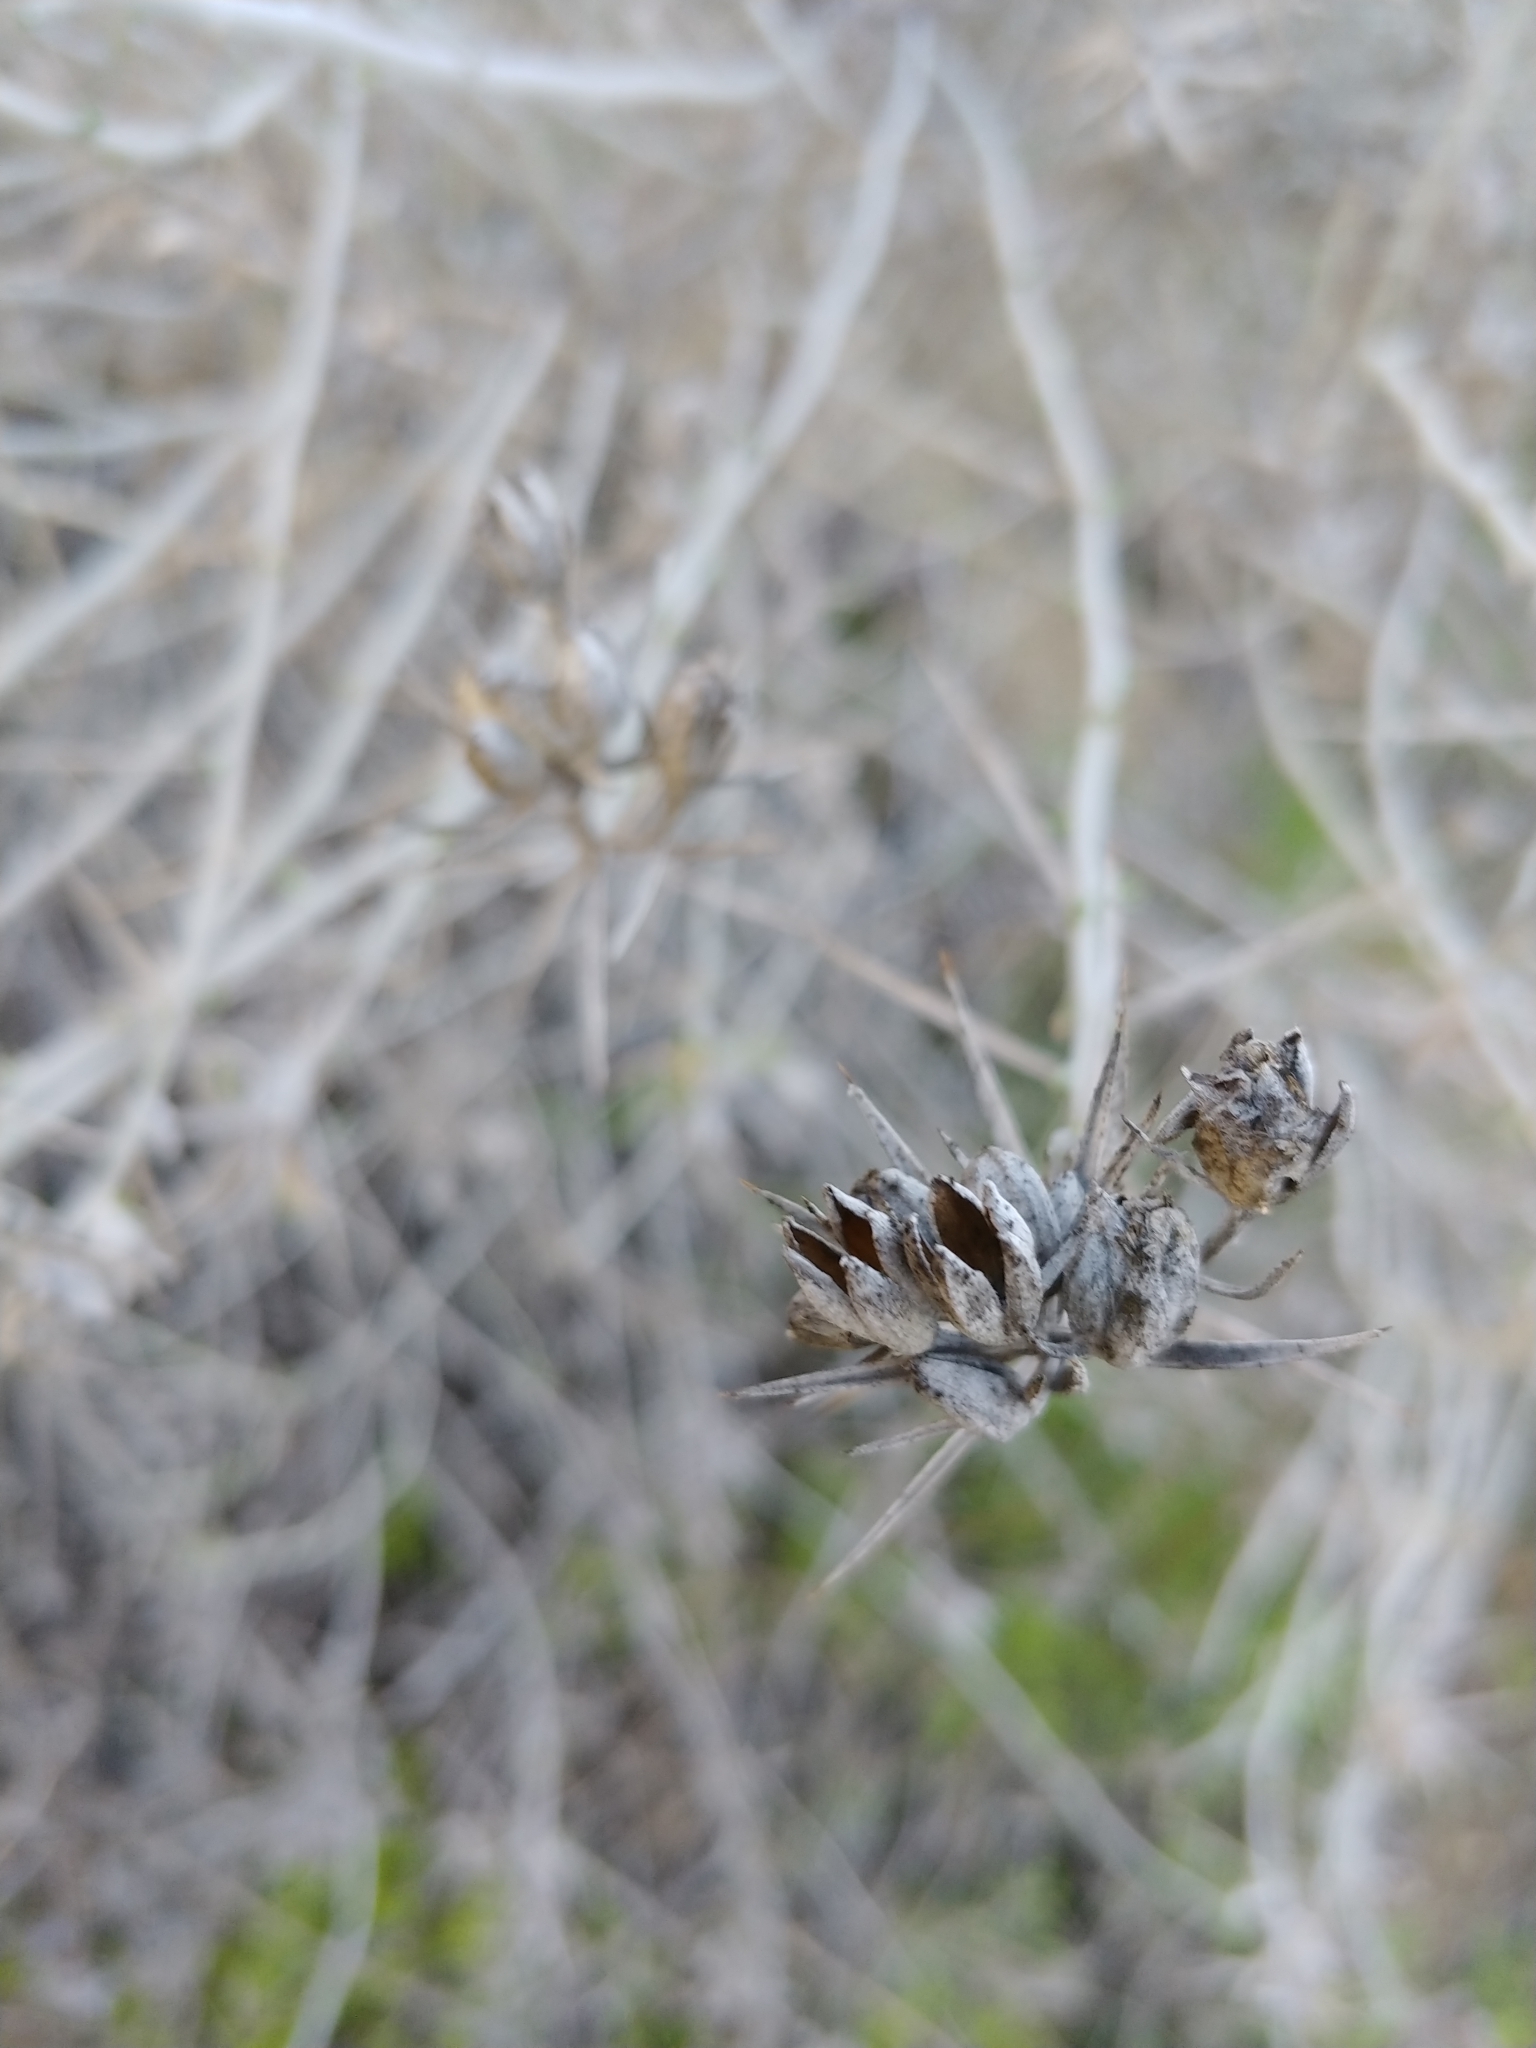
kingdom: Plantae
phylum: Tracheophyta
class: Magnoliopsida
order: Asterales
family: Asteraceae
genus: Tetradymia
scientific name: Tetradymia comosa
